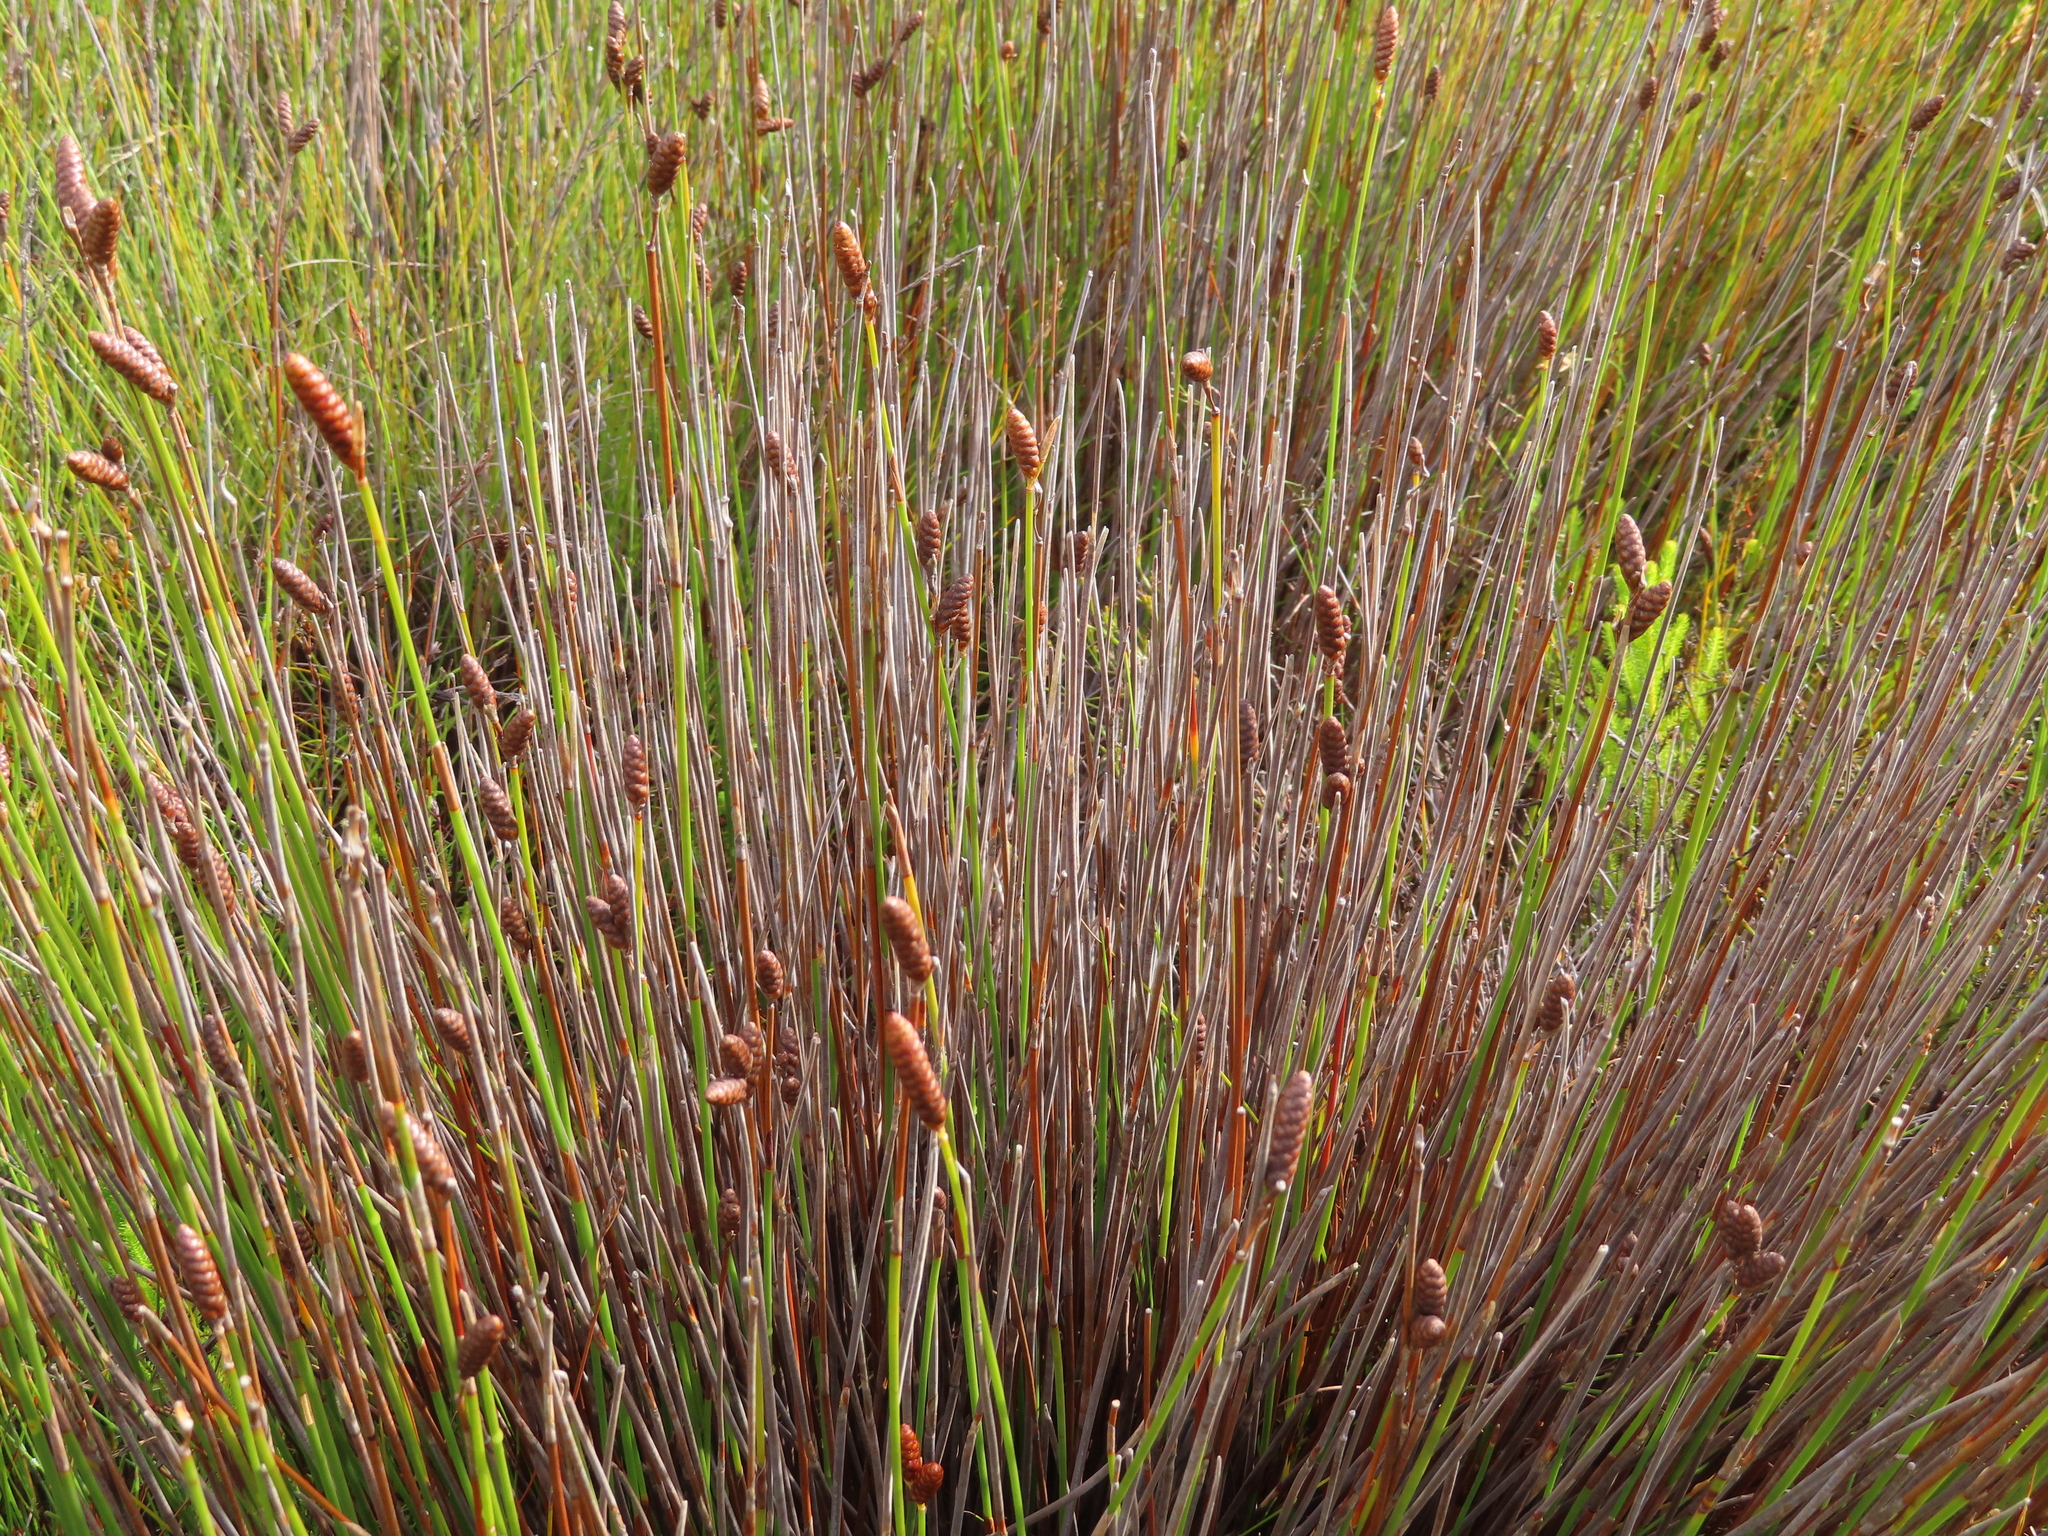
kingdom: Plantae
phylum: Tracheophyta
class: Liliopsida
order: Poales
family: Restionaceae
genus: Nevillea
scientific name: Nevillea obtusissimus
